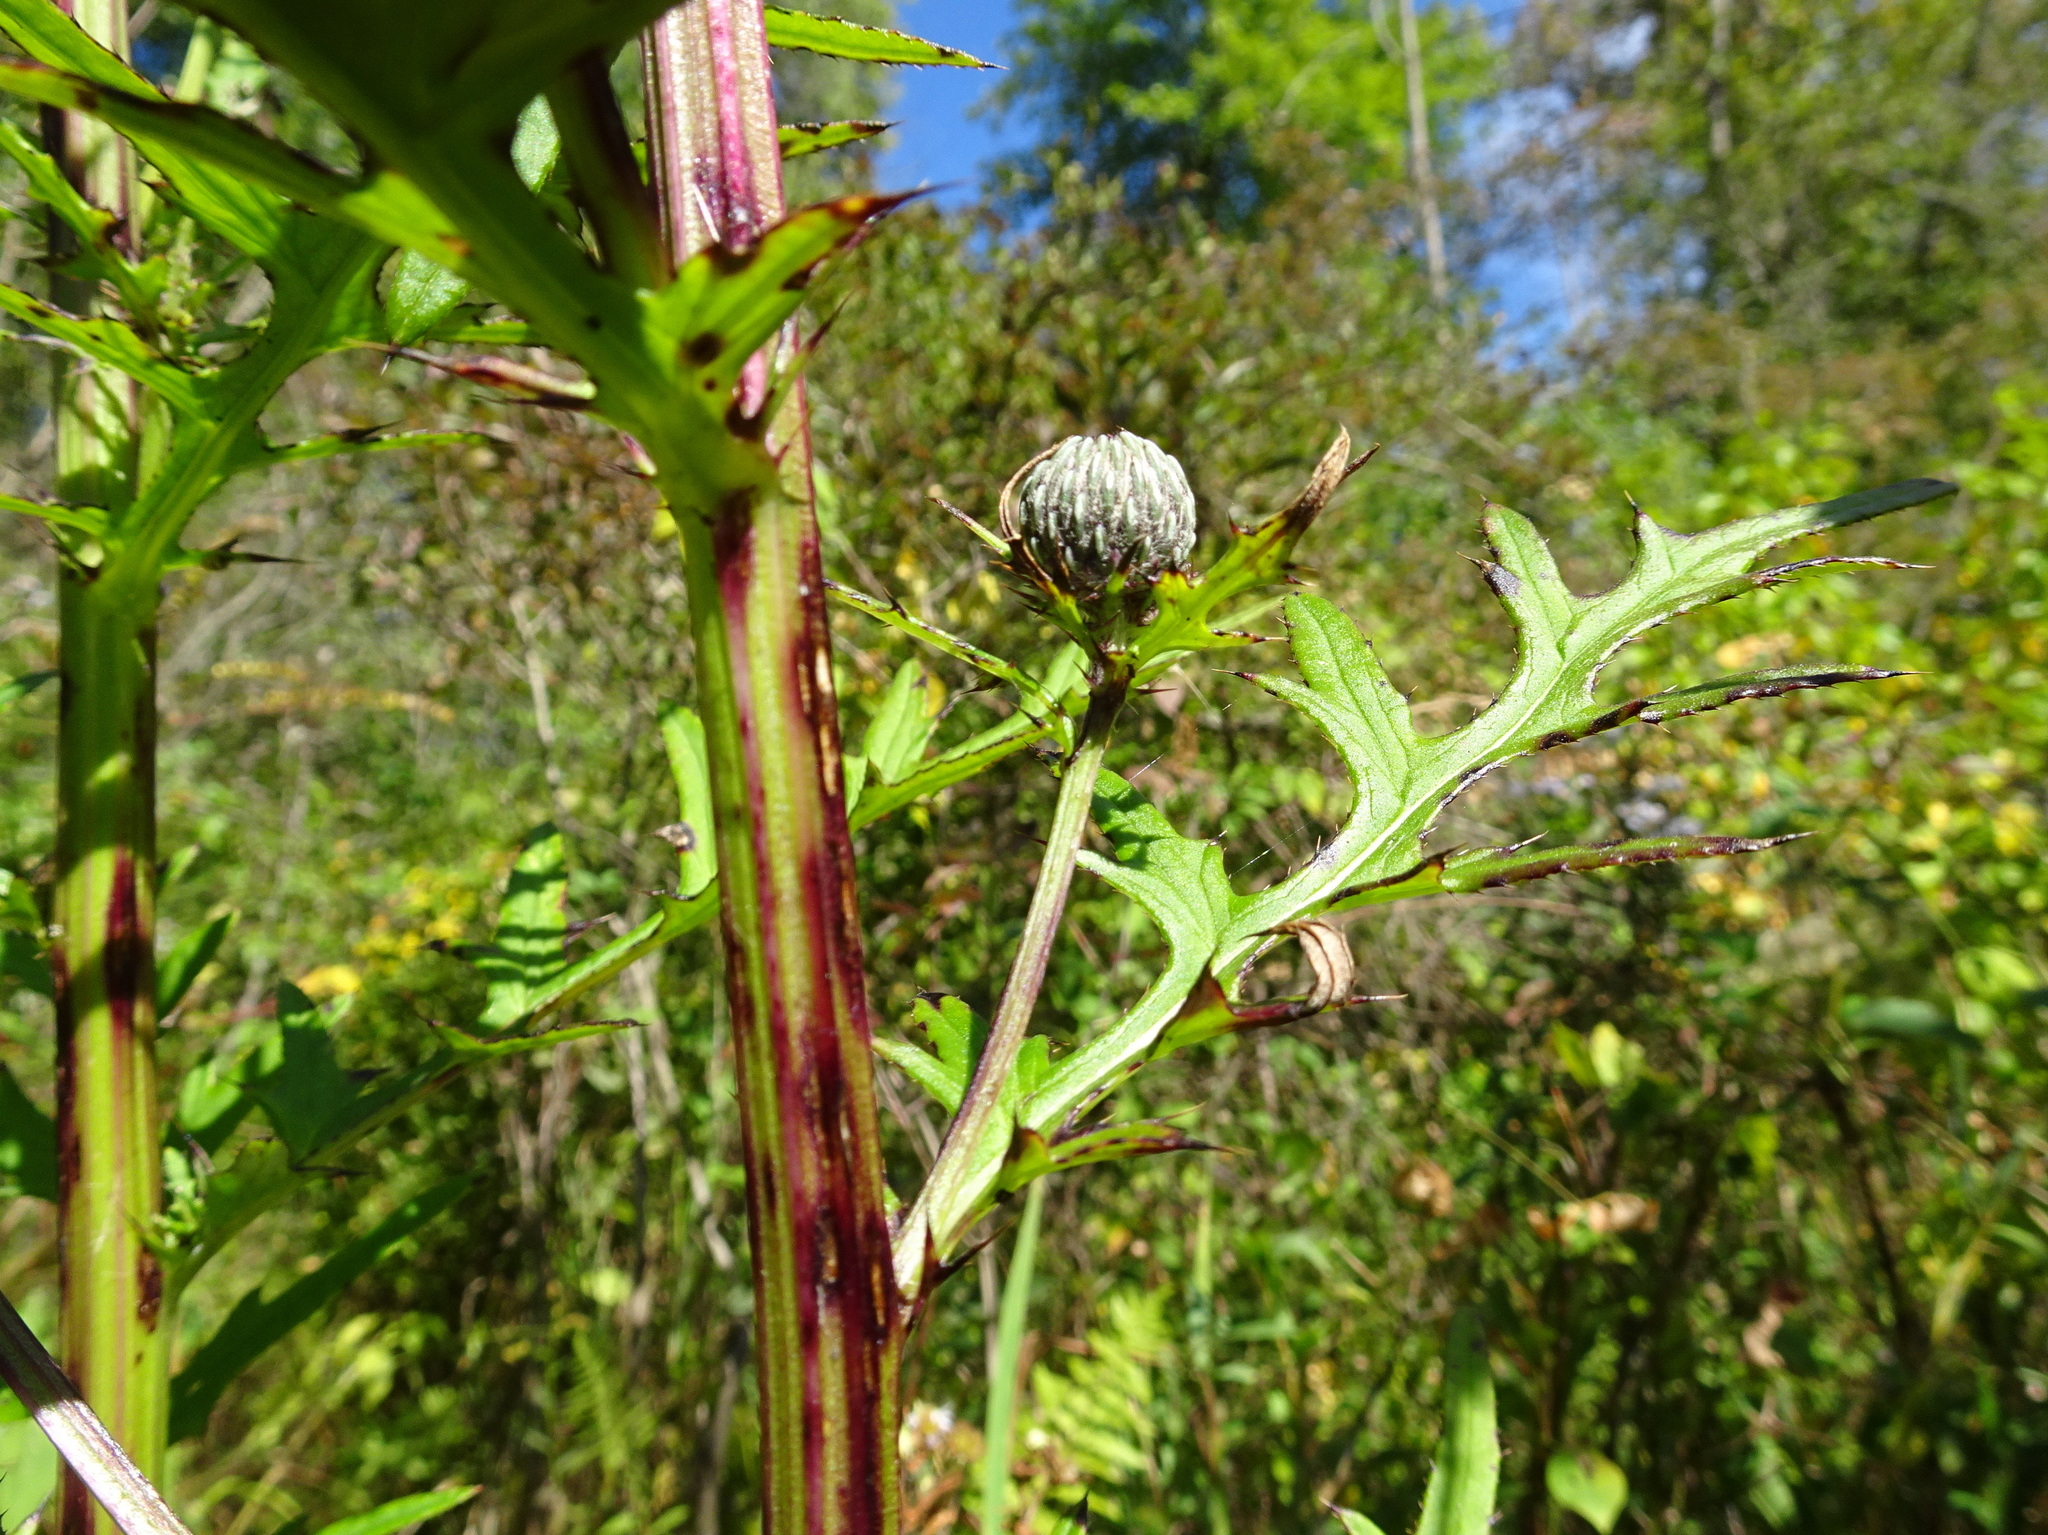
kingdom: Plantae
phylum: Tracheophyta
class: Magnoliopsida
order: Asterales
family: Asteraceae
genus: Cirsium
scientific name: Cirsium muticum
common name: Dunce-nettle
